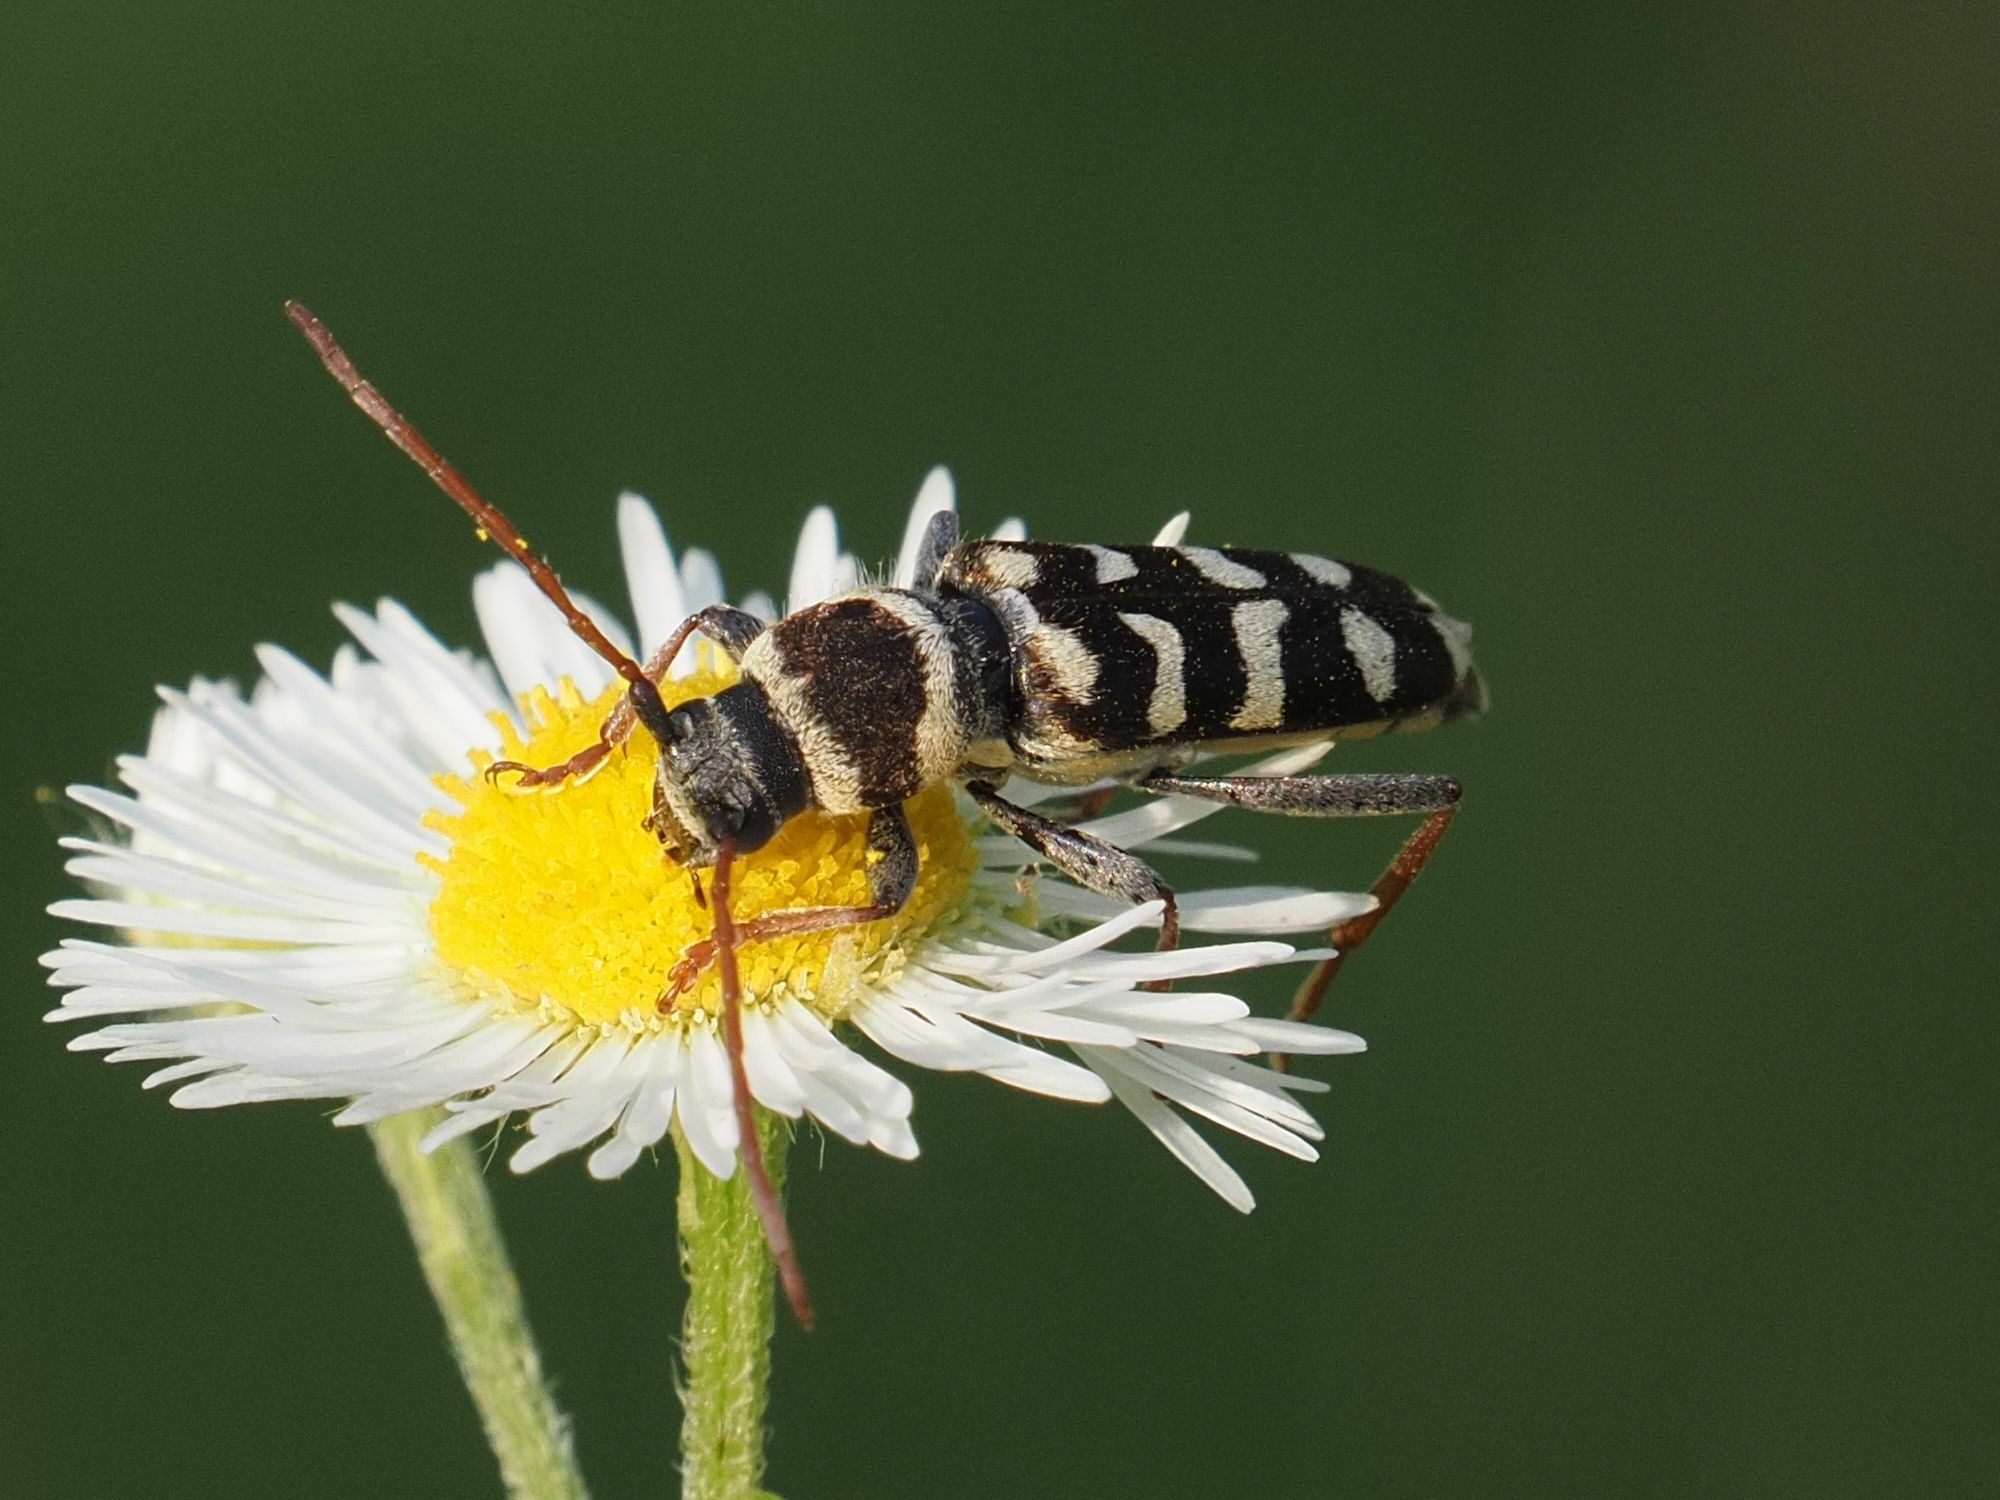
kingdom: Animalia
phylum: Arthropoda
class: Insecta
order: Coleoptera
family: Cerambycidae
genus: Plagionotus
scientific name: Plagionotus floralis
